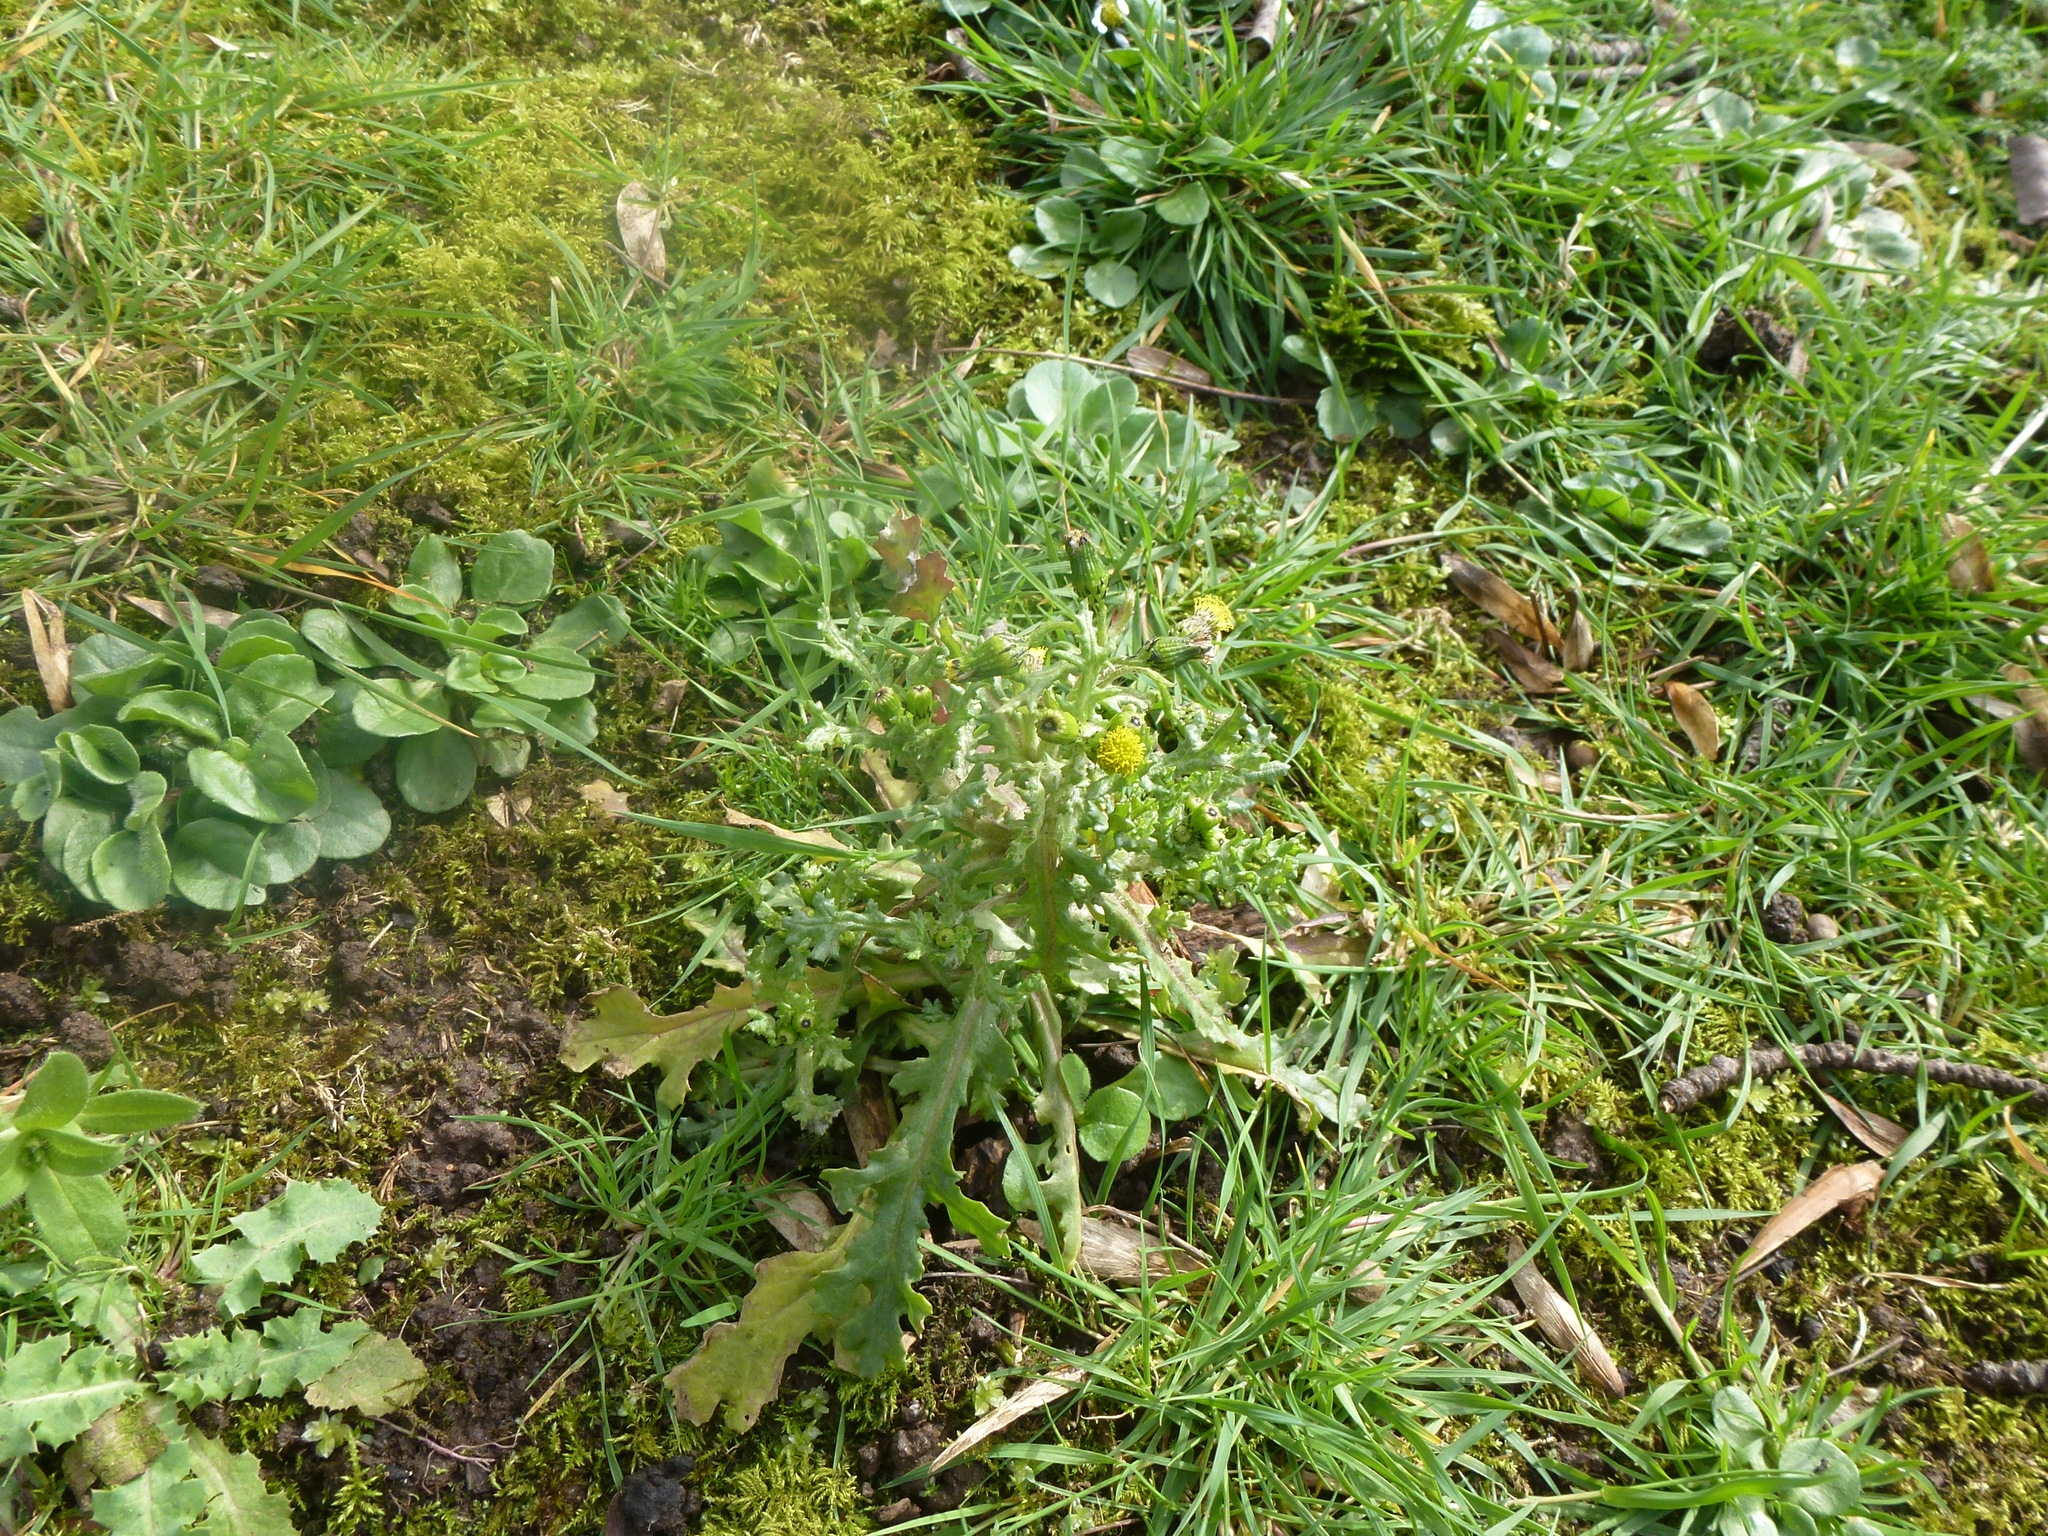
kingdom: Plantae
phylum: Tracheophyta
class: Magnoliopsida
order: Asterales
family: Asteraceae
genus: Senecio
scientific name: Senecio vulgaris
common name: Old-man-in-the-spring
